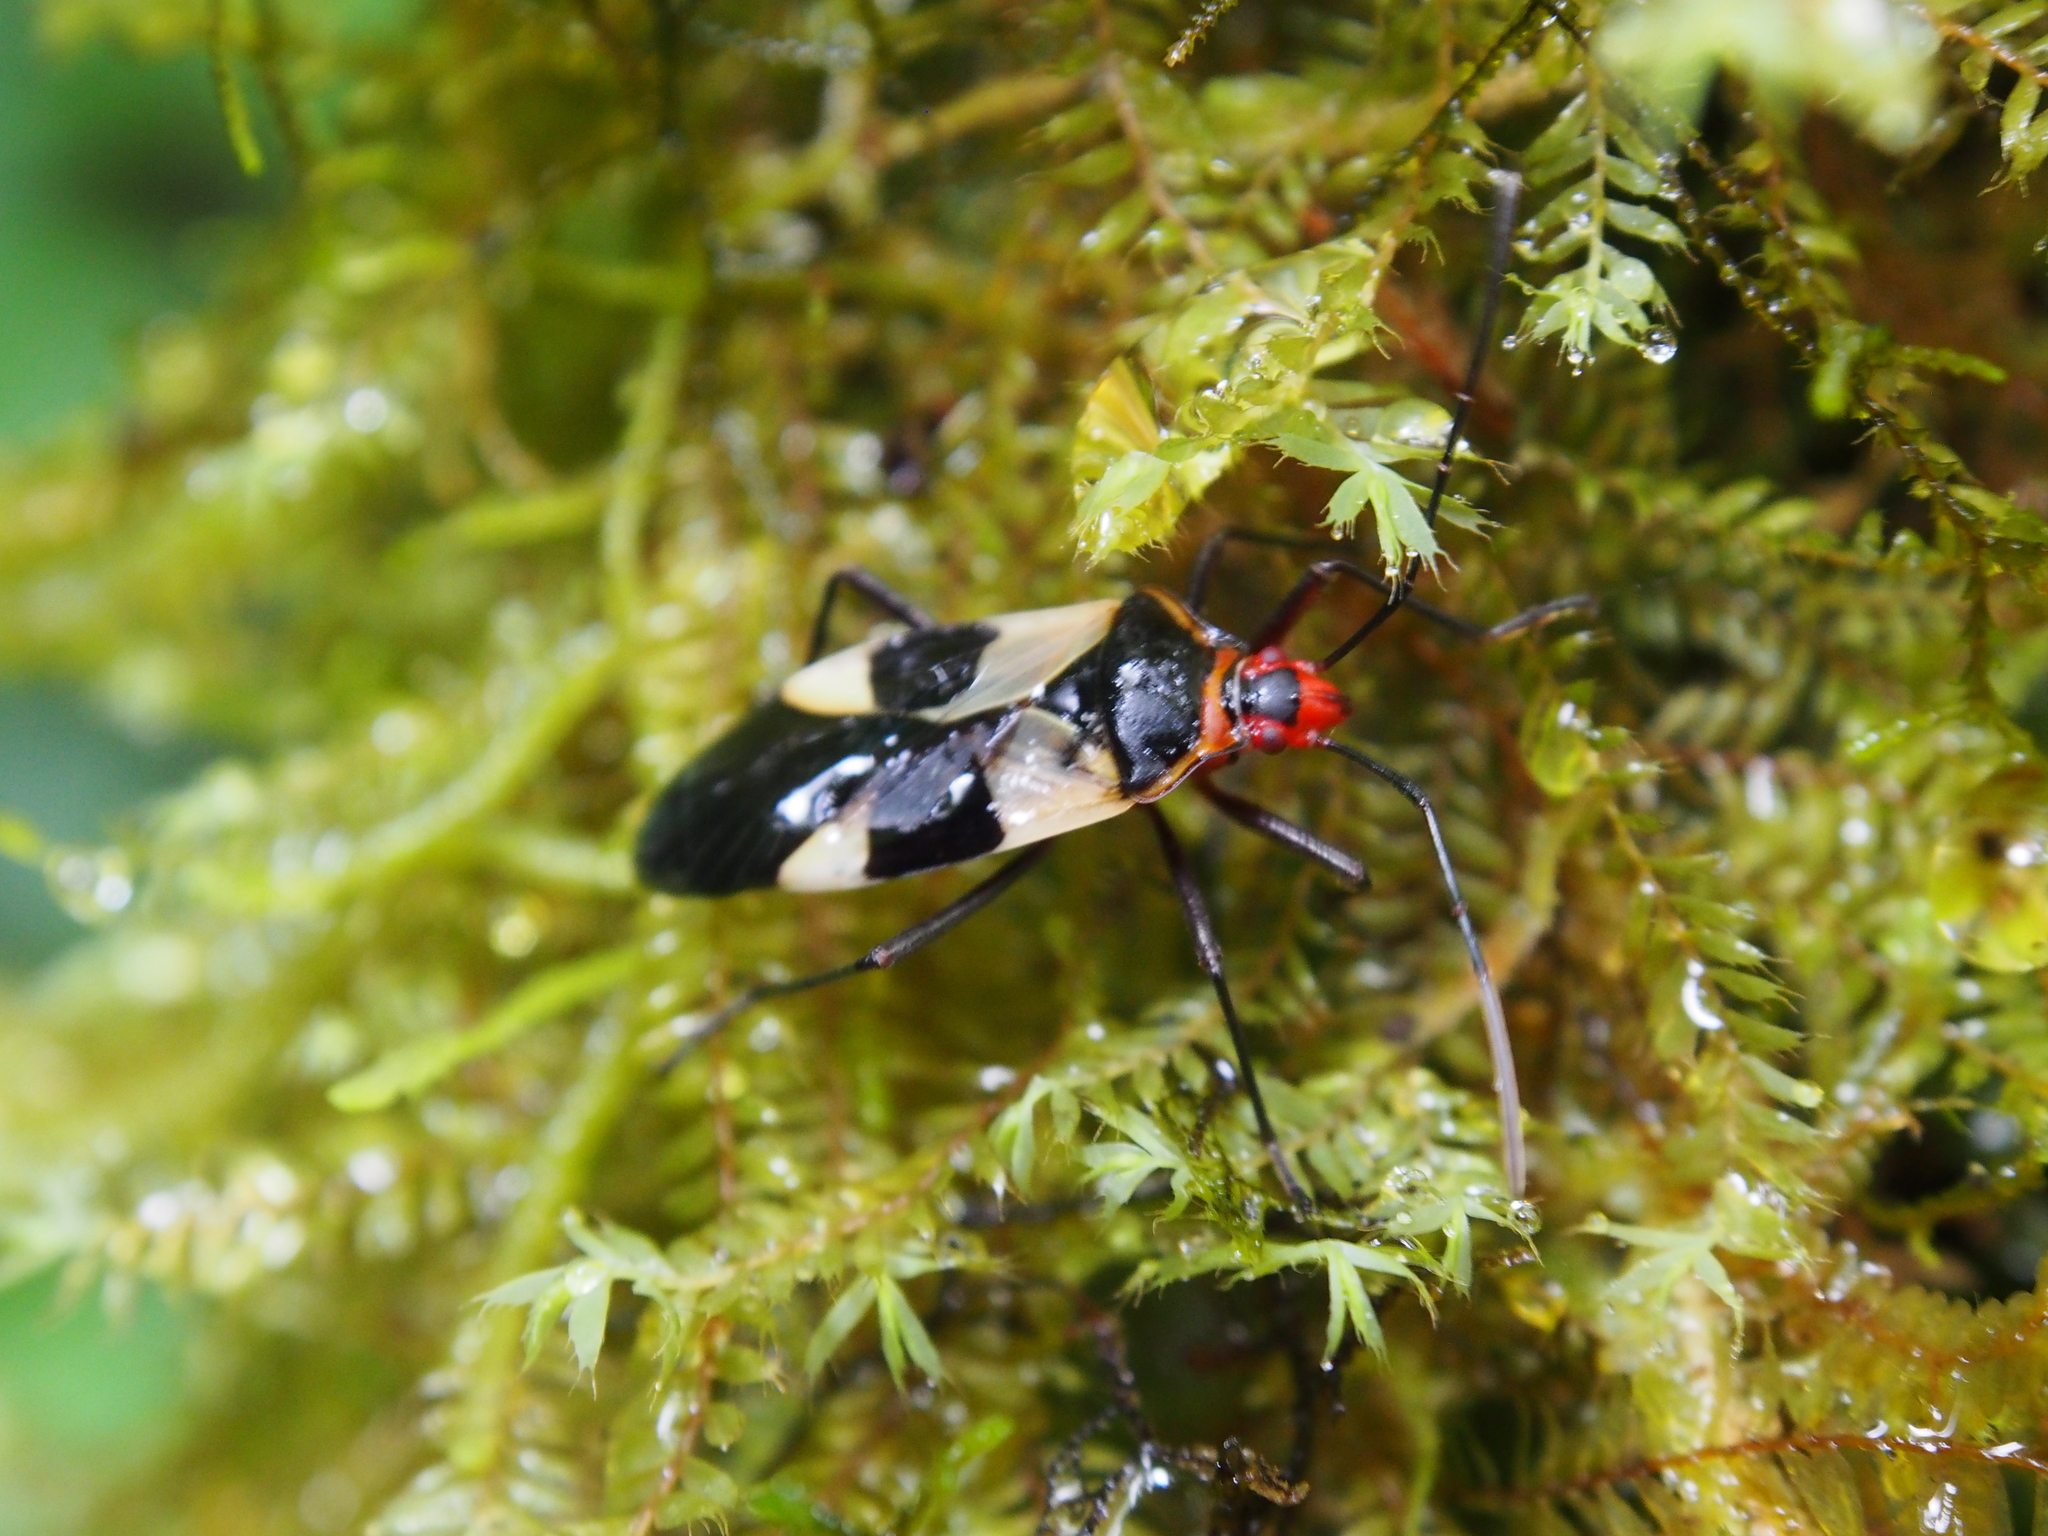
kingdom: Animalia
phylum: Arthropoda
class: Insecta
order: Hemiptera
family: Pyrrhocoridae
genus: Dysdercus
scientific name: Dysdercus lunulatus
